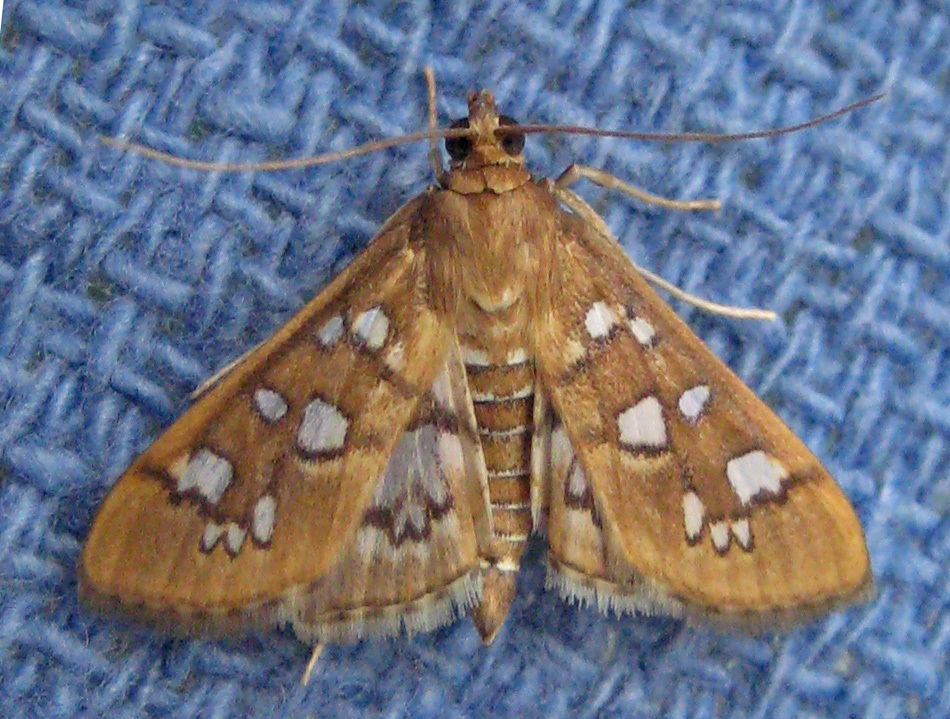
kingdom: Animalia
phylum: Arthropoda
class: Insecta
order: Lepidoptera
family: Crambidae
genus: Samea
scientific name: Samea baccatalis
